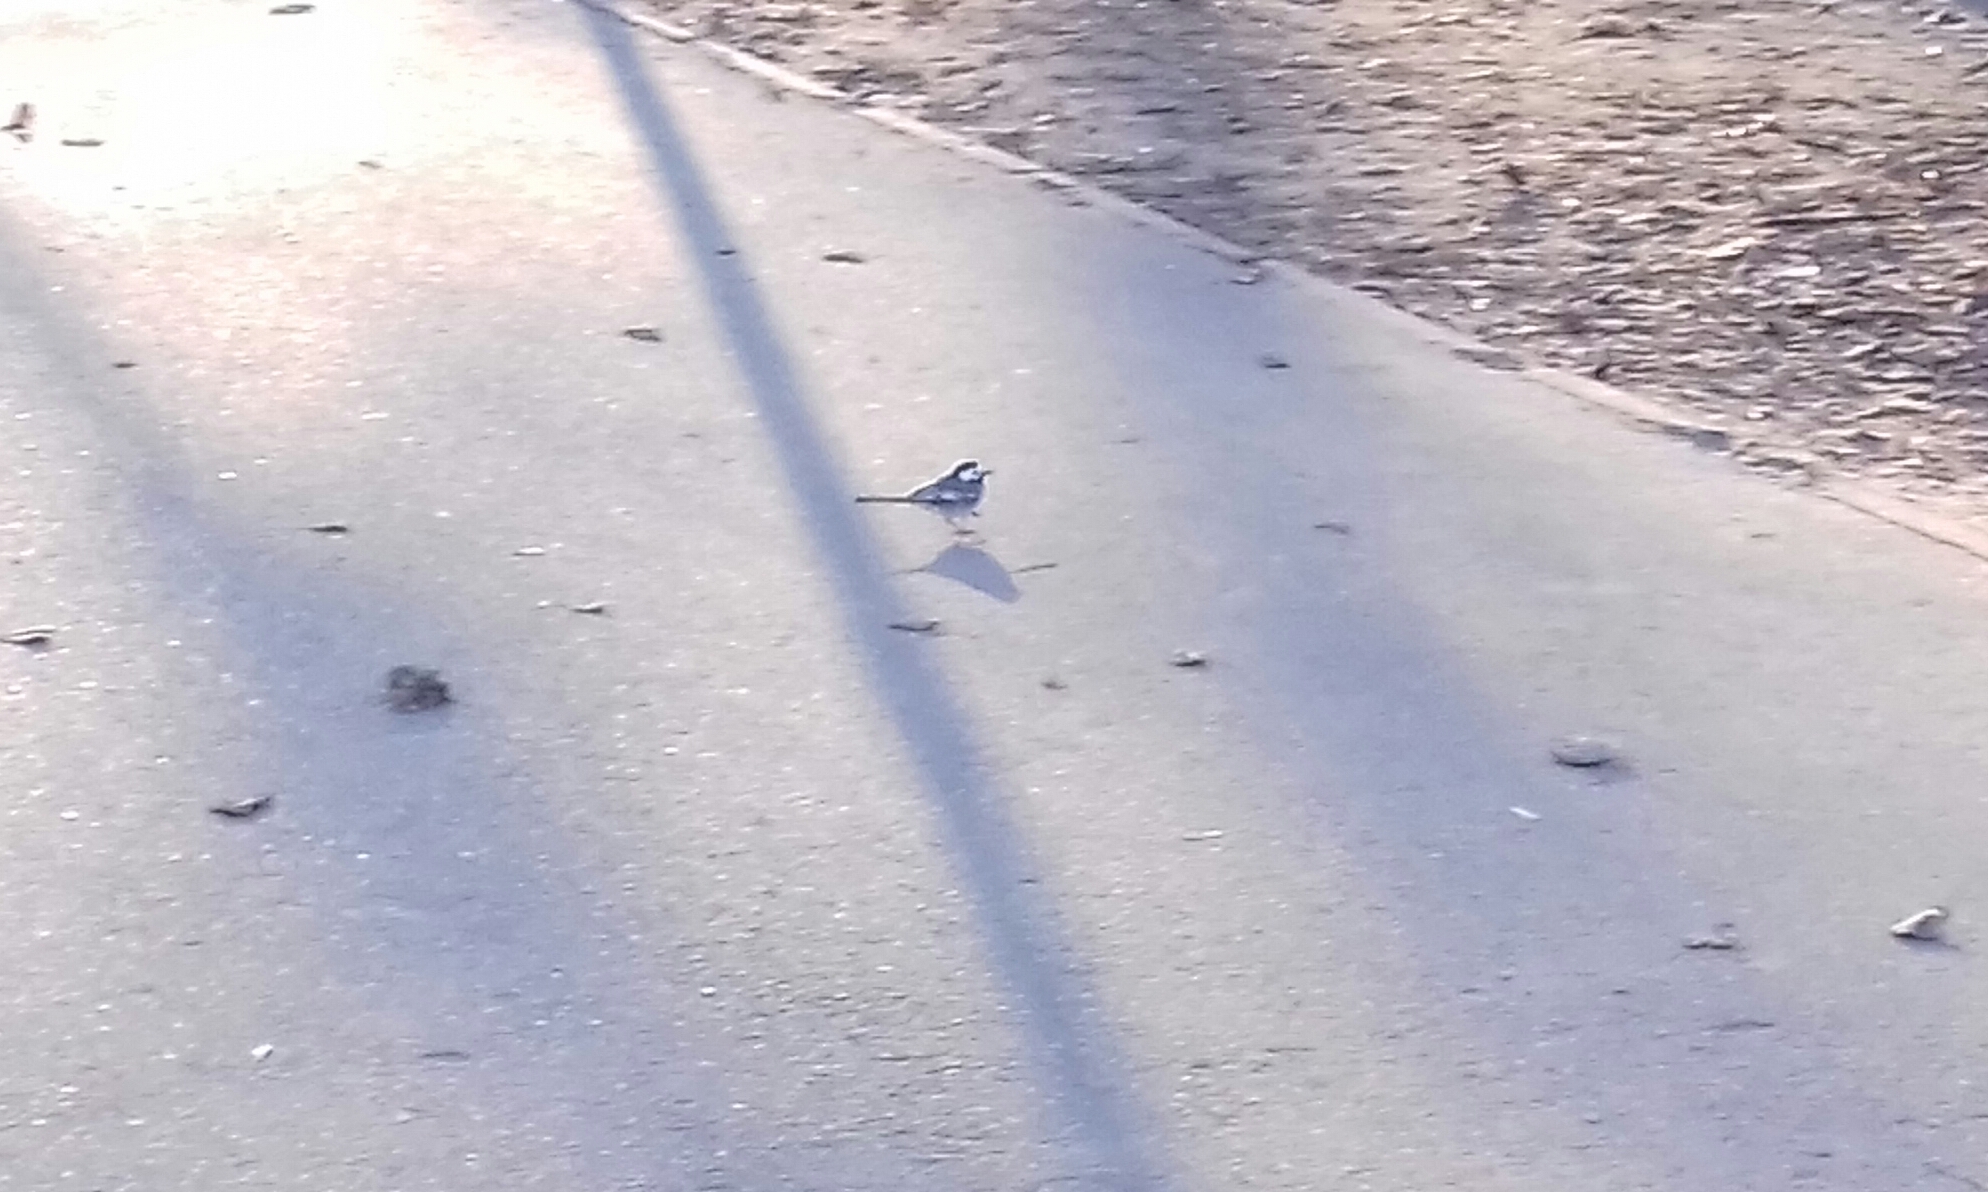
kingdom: Animalia
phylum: Chordata
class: Aves
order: Passeriformes
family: Motacillidae
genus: Motacilla
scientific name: Motacilla alba
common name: White wagtail
